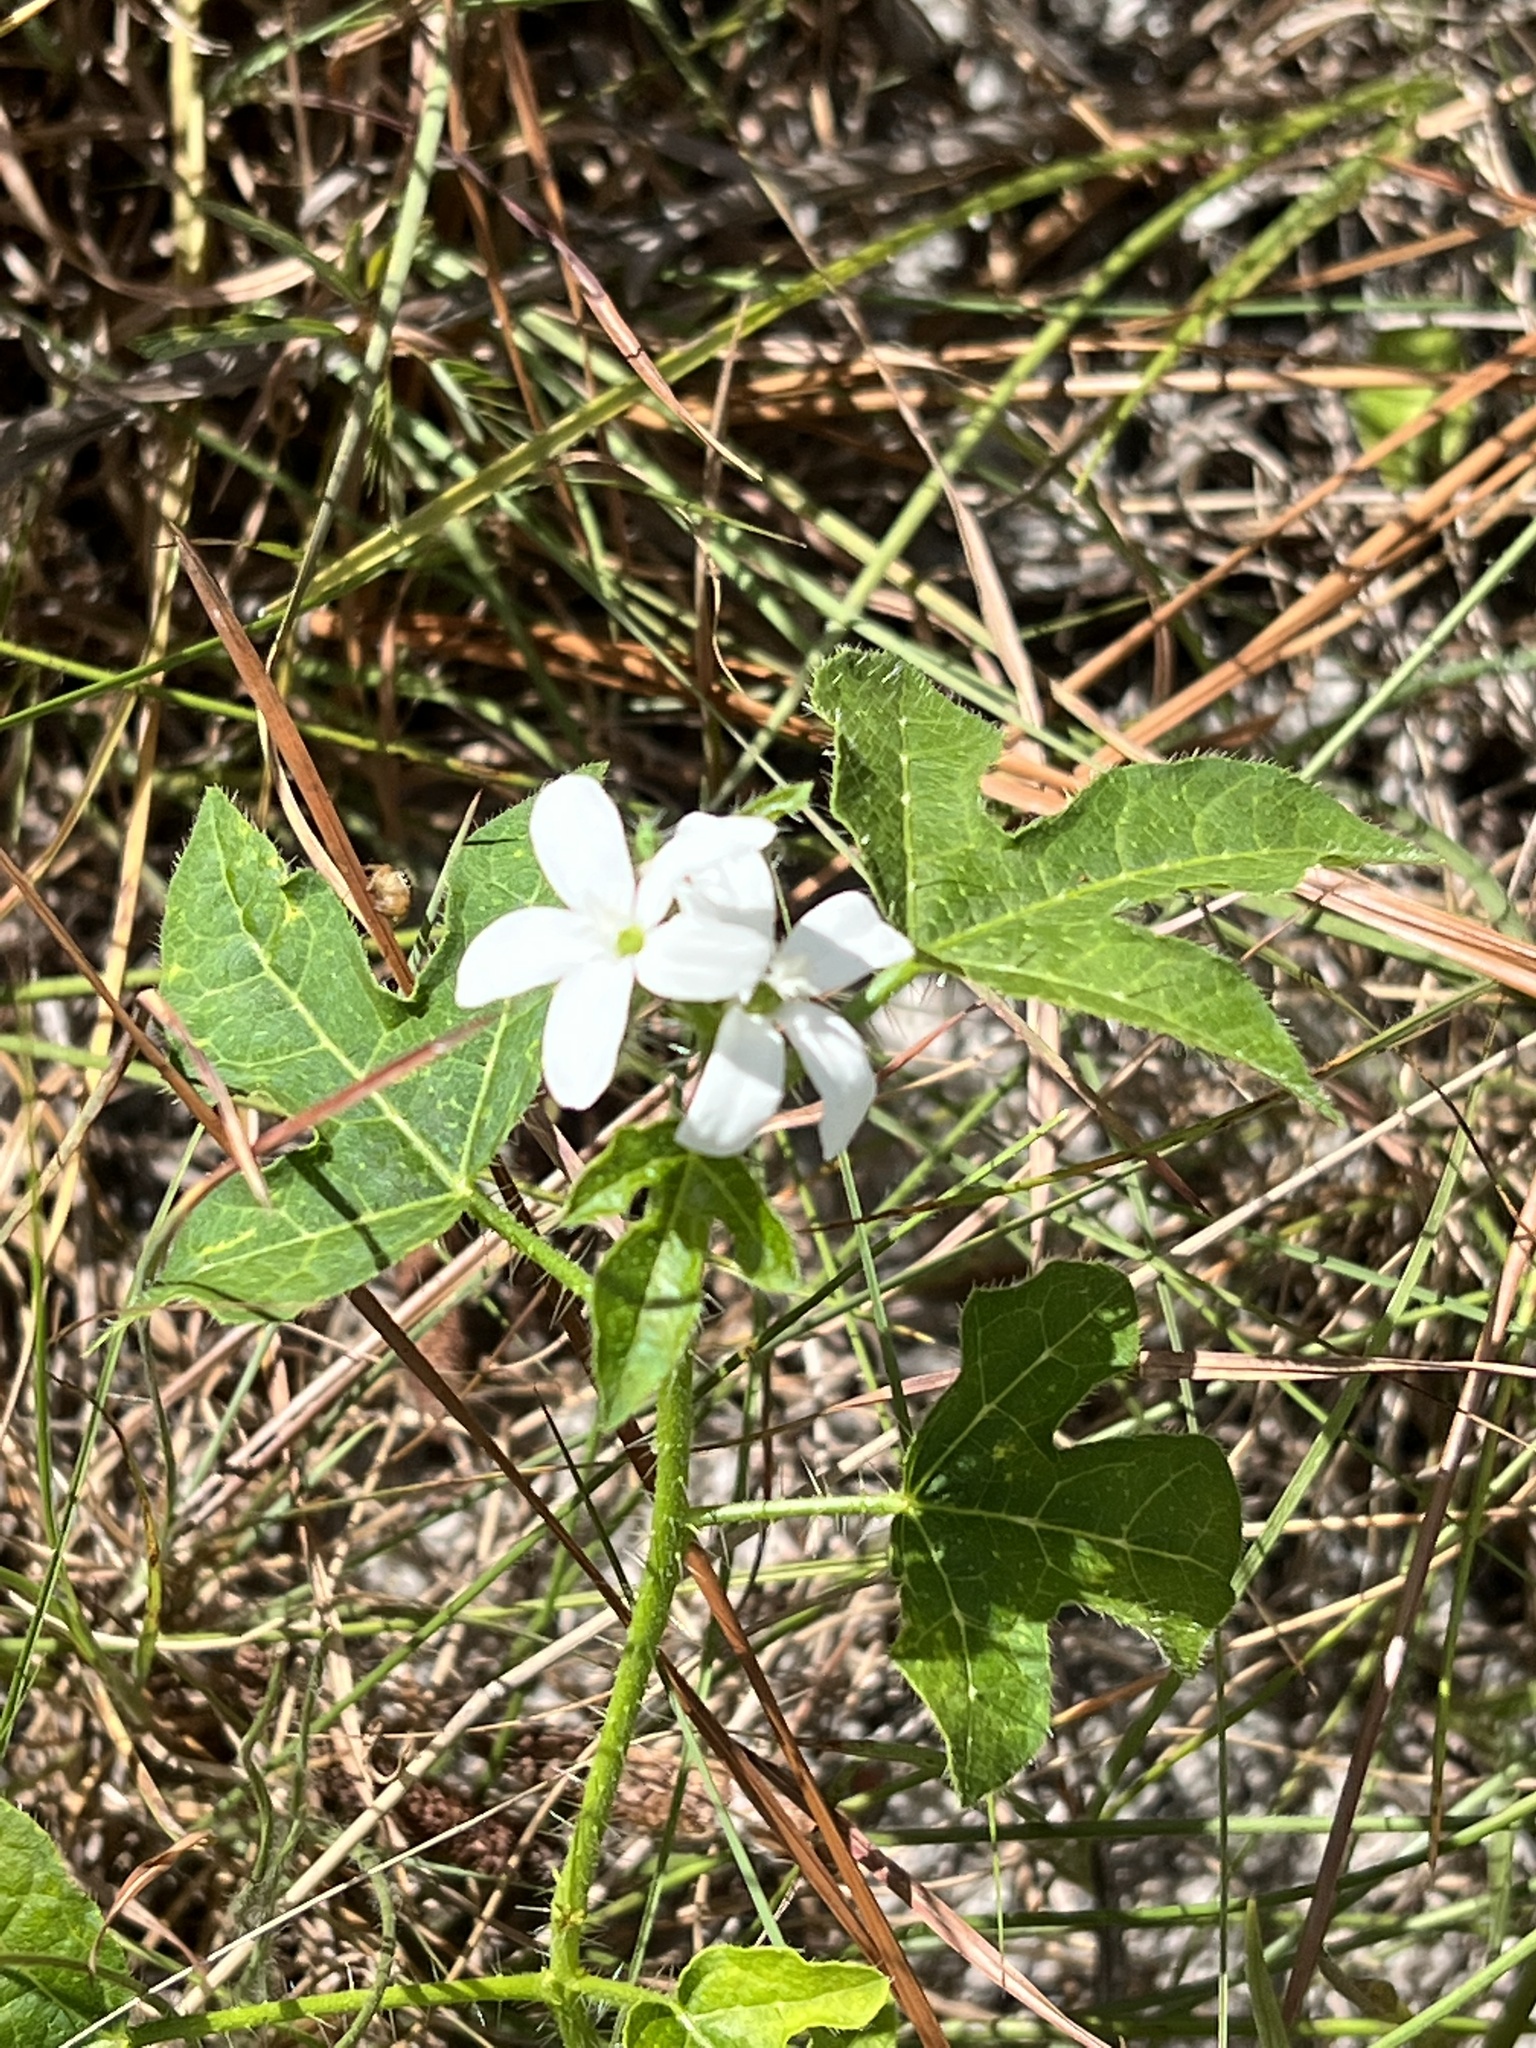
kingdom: Plantae
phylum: Tracheophyta
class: Magnoliopsida
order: Malpighiales
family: Euphorbiaceae
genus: Cnidoscolus
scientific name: Cnidoscolus stimulosus
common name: Bull-nettle
